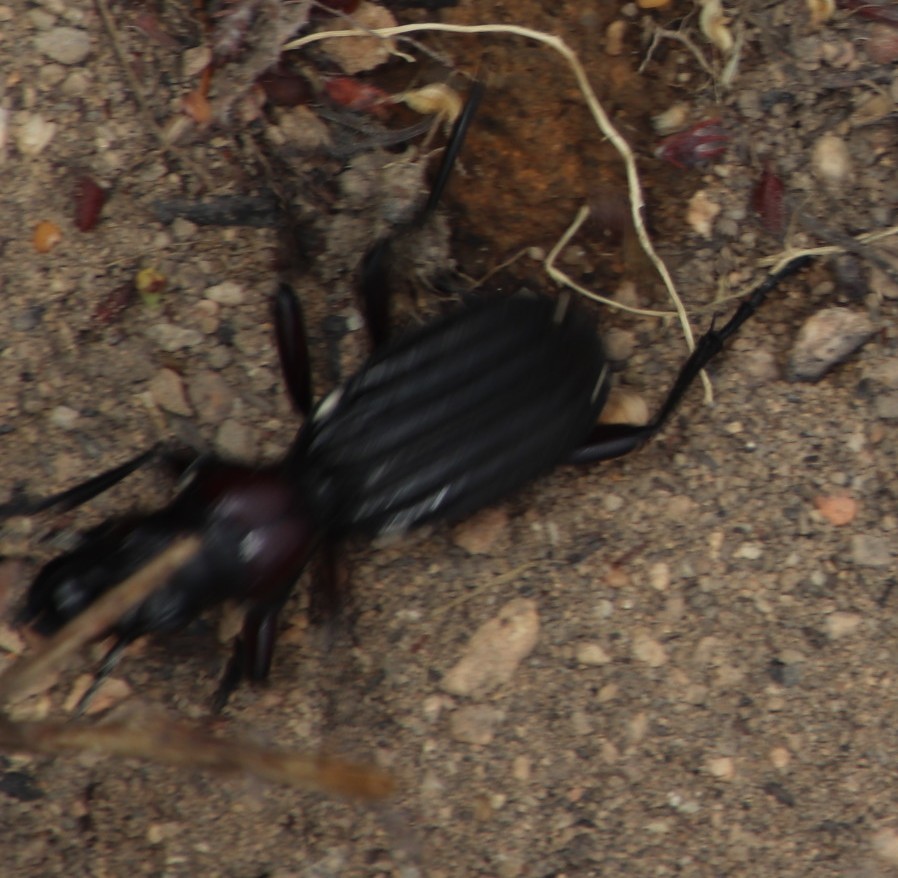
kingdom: Animalia
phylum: Arthropoda
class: Insecta
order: Coleoptera
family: Carabidae
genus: Anthia
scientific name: Anthia decemguttata
